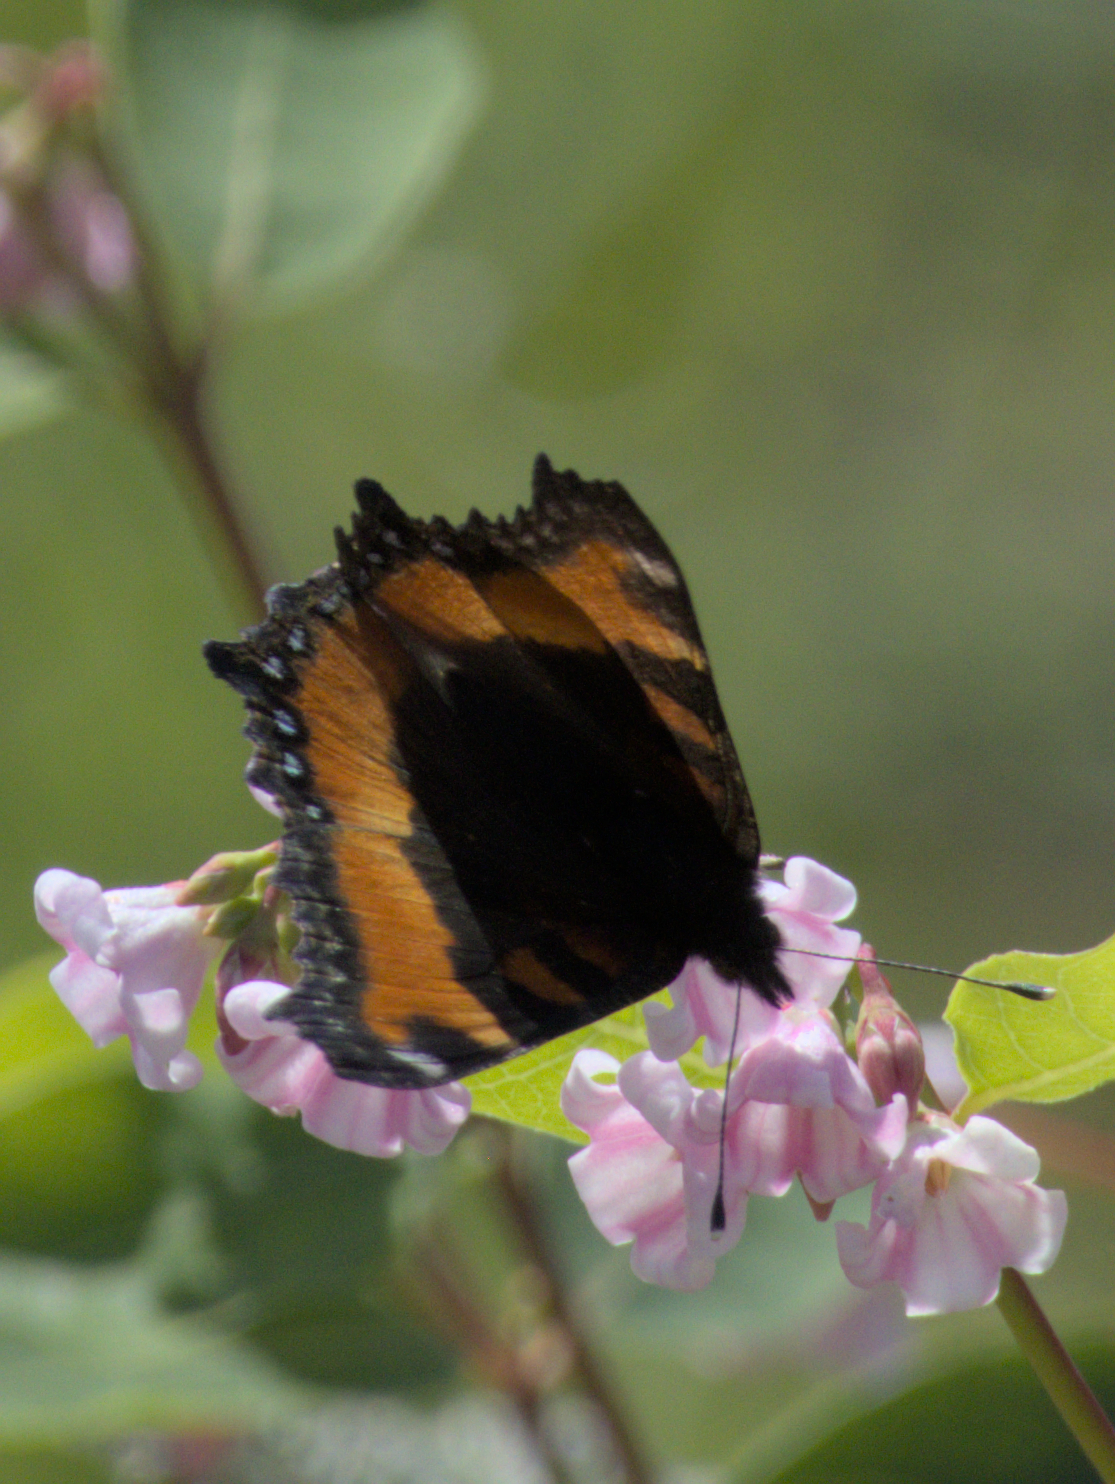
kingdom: Animalia
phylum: Arthropoda
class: Insecta
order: Lepidoptera
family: Nymphalidae
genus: Aglais
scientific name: Aglais milberti
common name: Milbert's tortoiseshell
